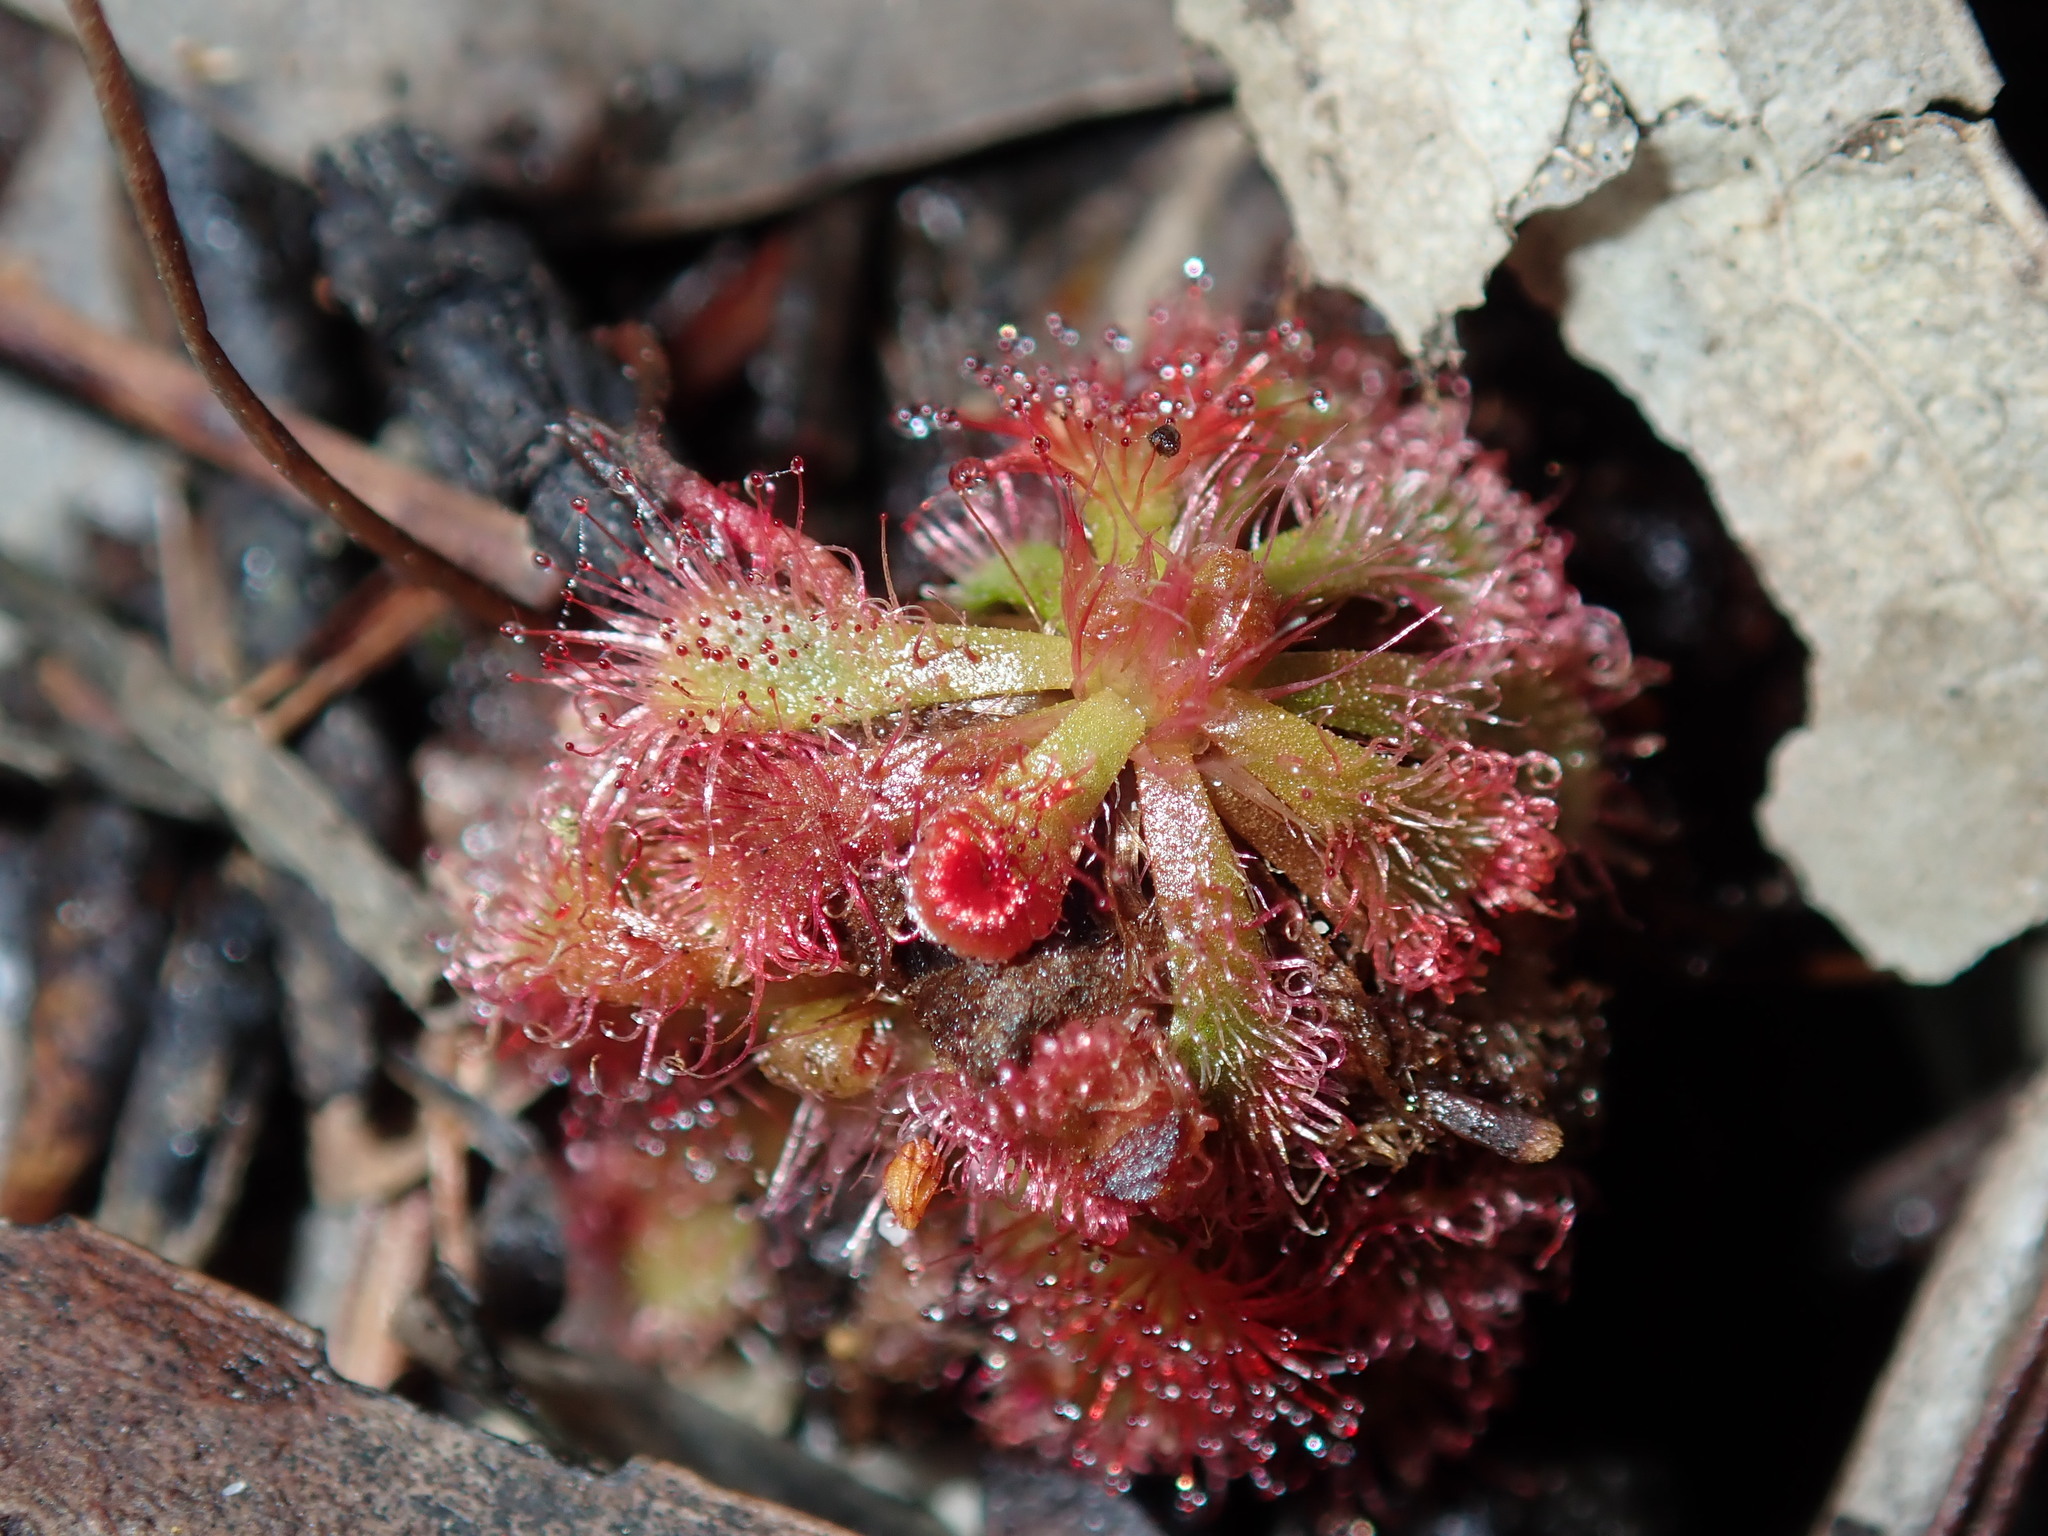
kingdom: Plantae
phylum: Tracheophyta
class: Magnoliopsida
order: Caryophyllales
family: Droseraceae
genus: Drosera
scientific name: Drosera spatulata
